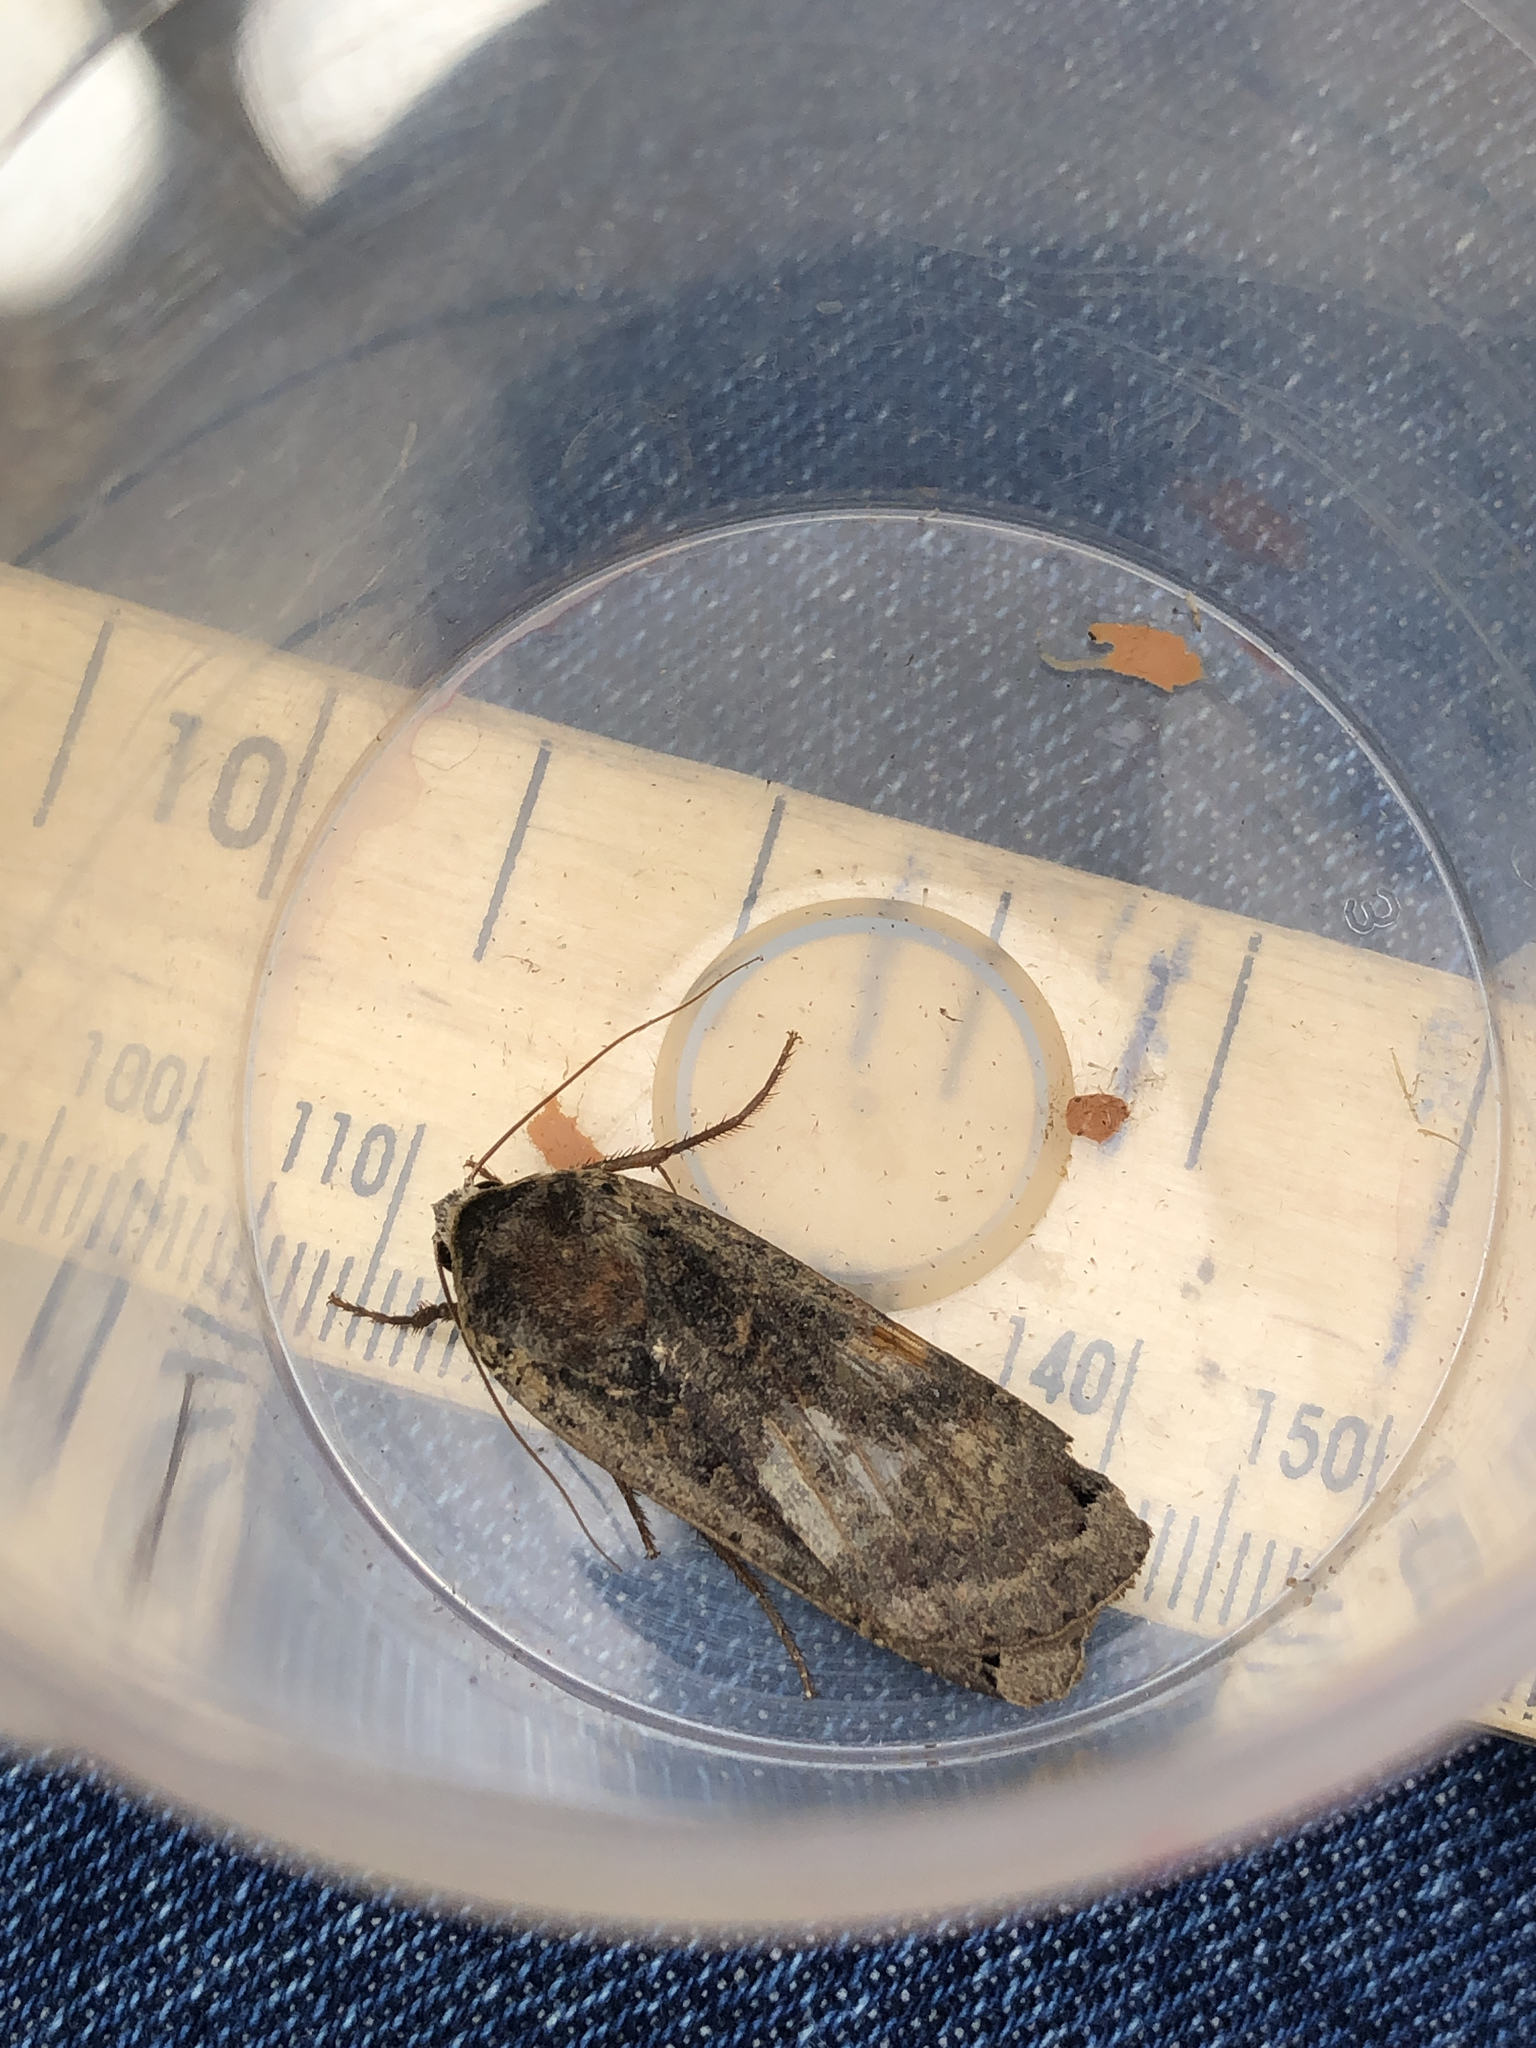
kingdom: Animalia
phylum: Arthropoda
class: Insecta
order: Lepidoptera
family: Noctuidae
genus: Noctua
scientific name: Noctua pronuba
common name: Large yellow underwing
